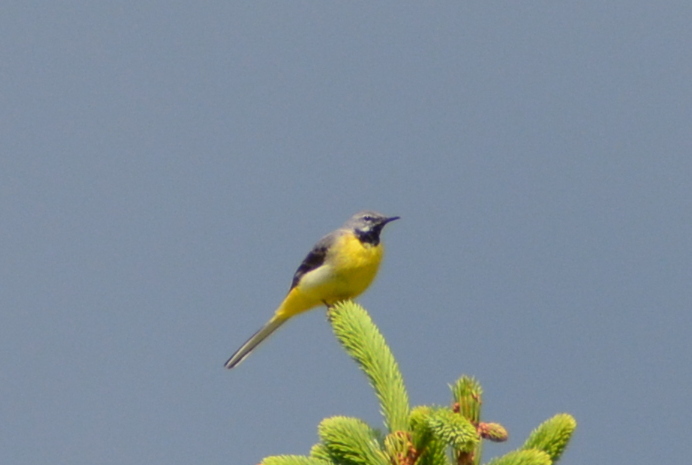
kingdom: Animalia
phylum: Chordata
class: Aves
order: Passeriformes
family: Motacillidae
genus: Motacilla
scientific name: Motacilla cinerea
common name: Grey wagtail
